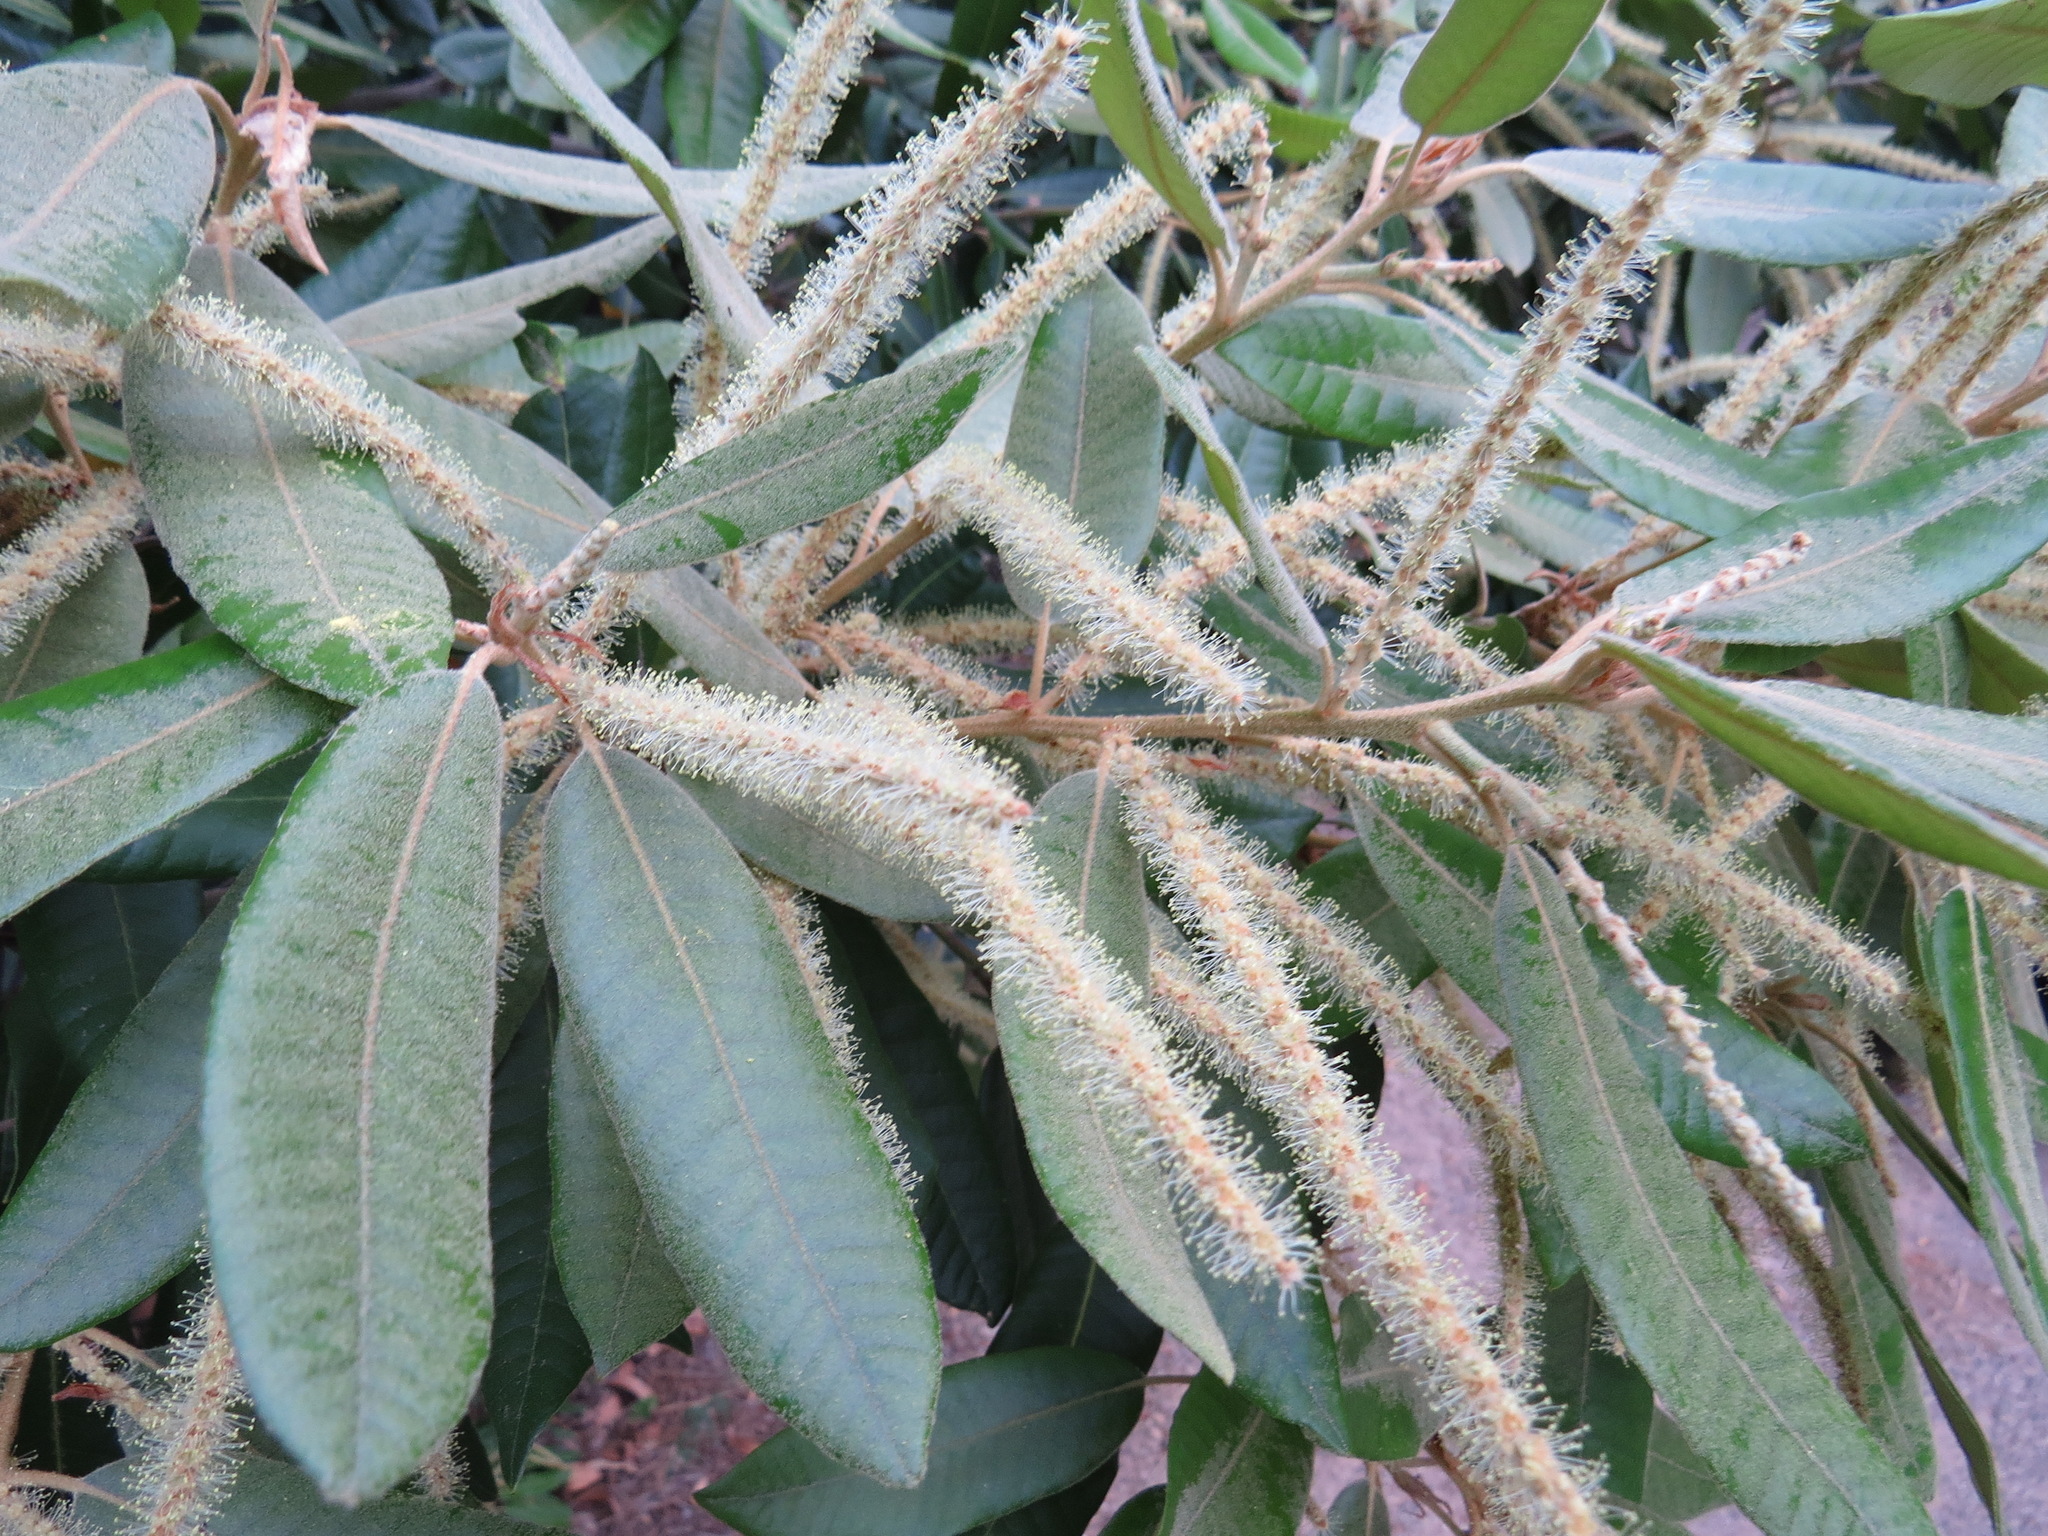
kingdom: Plantae
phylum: Tracheophyta
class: Magnoliopsida
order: Fagales
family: Fagaceae
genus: Notholithocarpus
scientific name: Notholithocarpus densiflorus
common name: Tan bark oak
